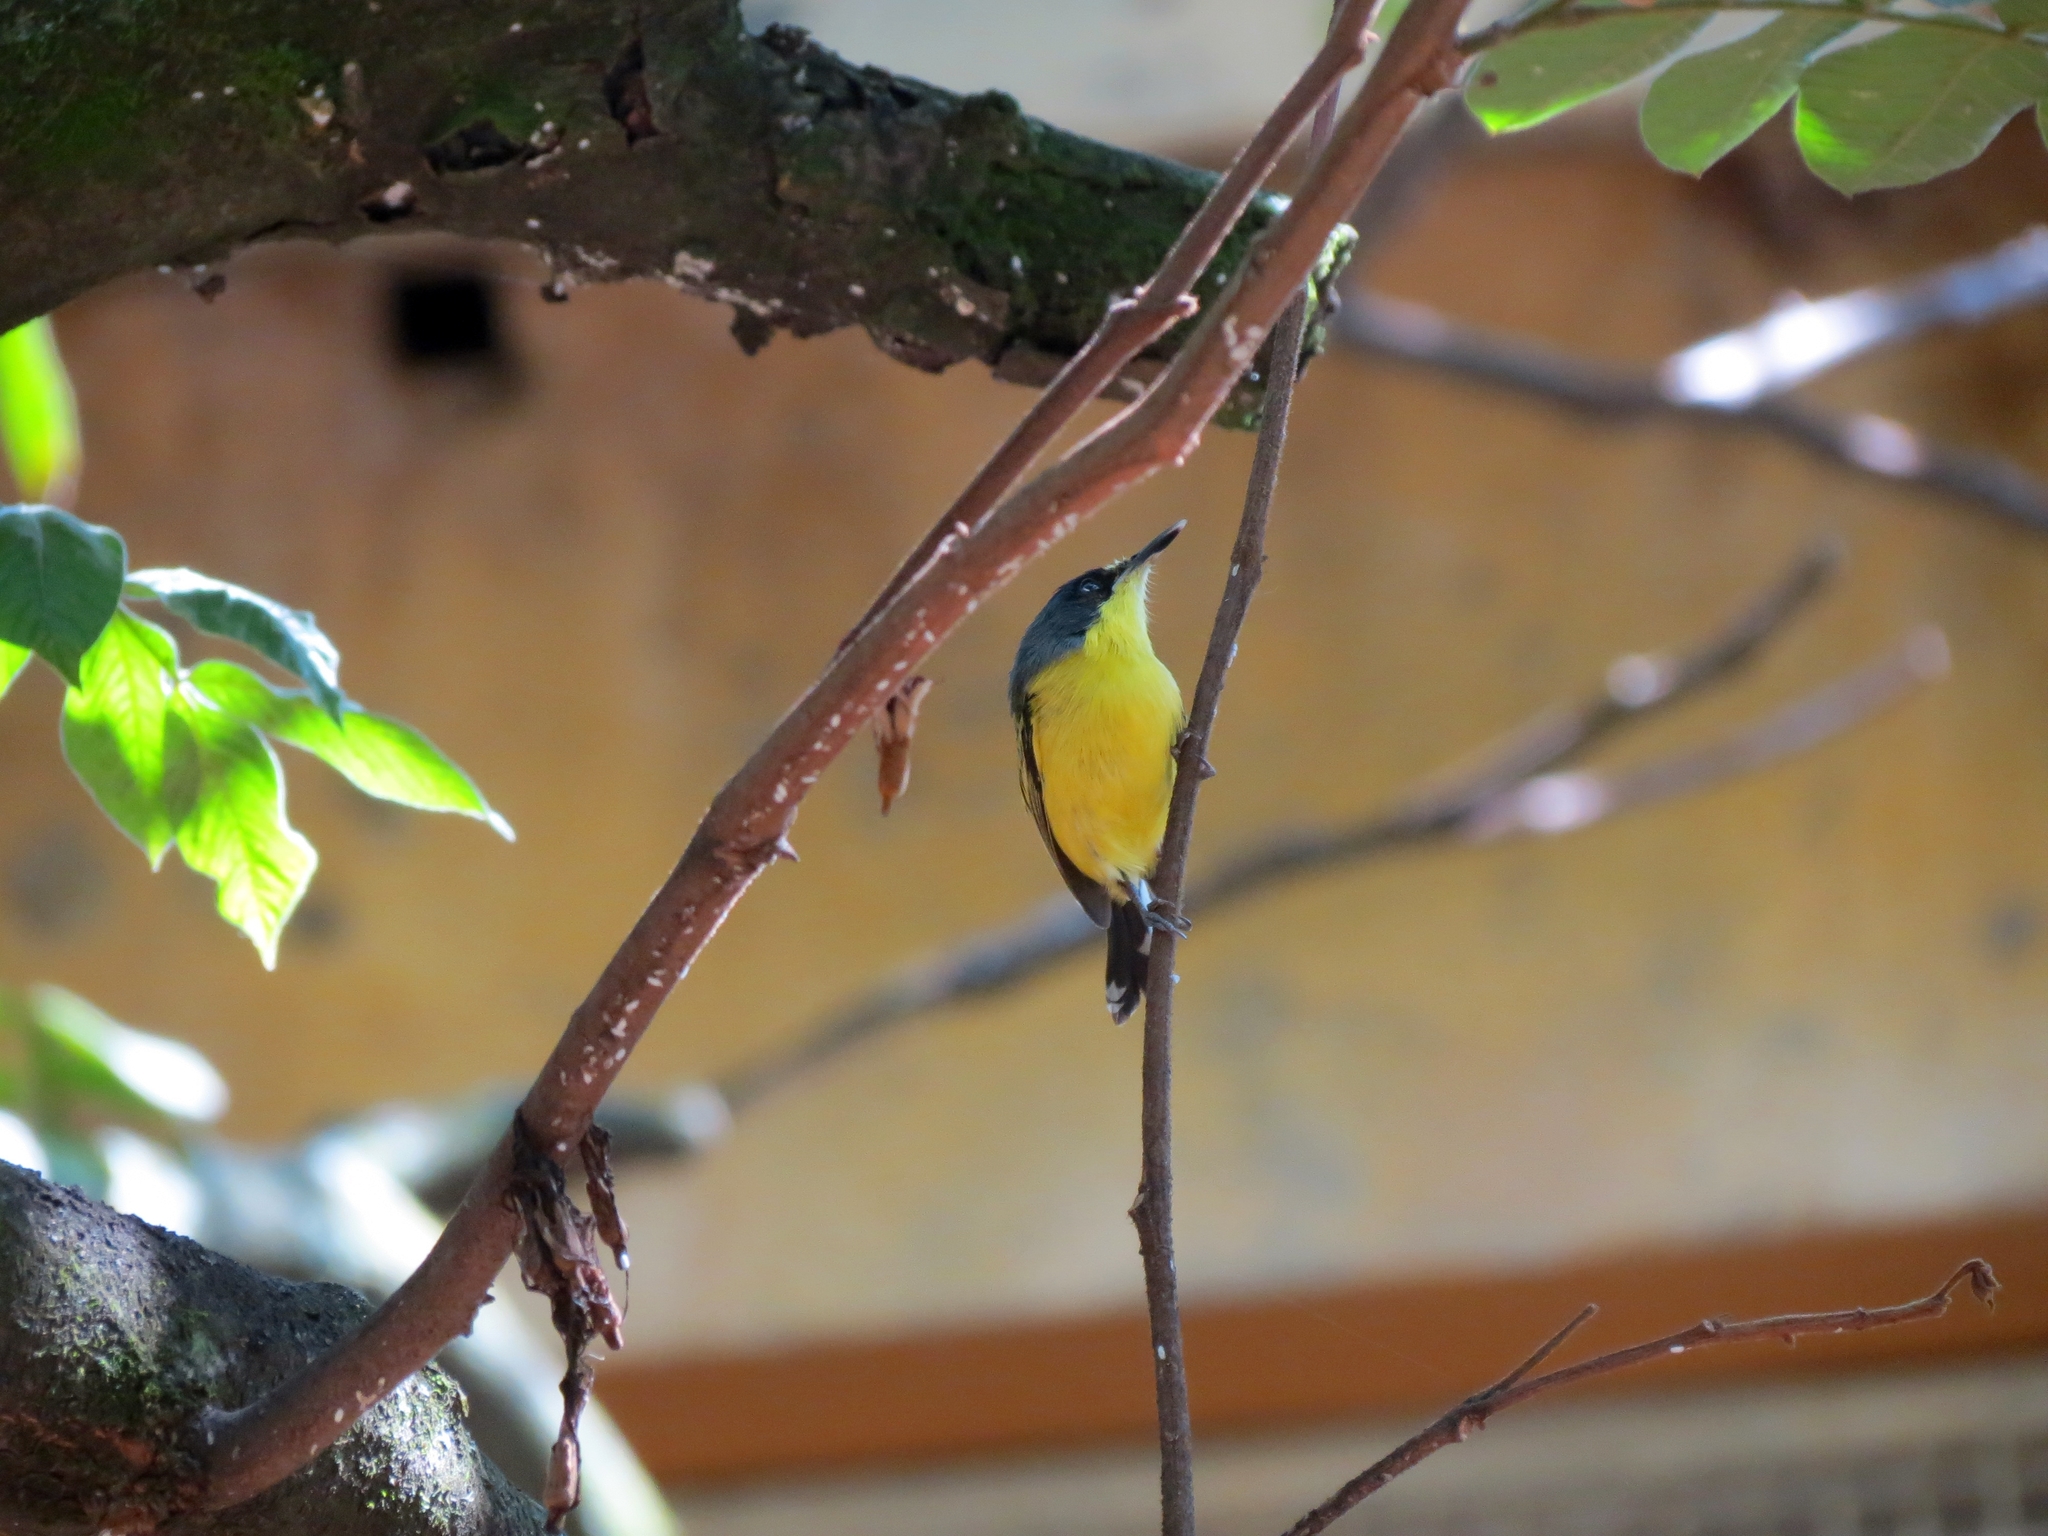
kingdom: Animalia
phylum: Chordata
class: Aves
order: Passeriformes
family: Tyrannidae
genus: Todirostrum
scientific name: Todirostrum cinereum
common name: Common tody-flycatcher
